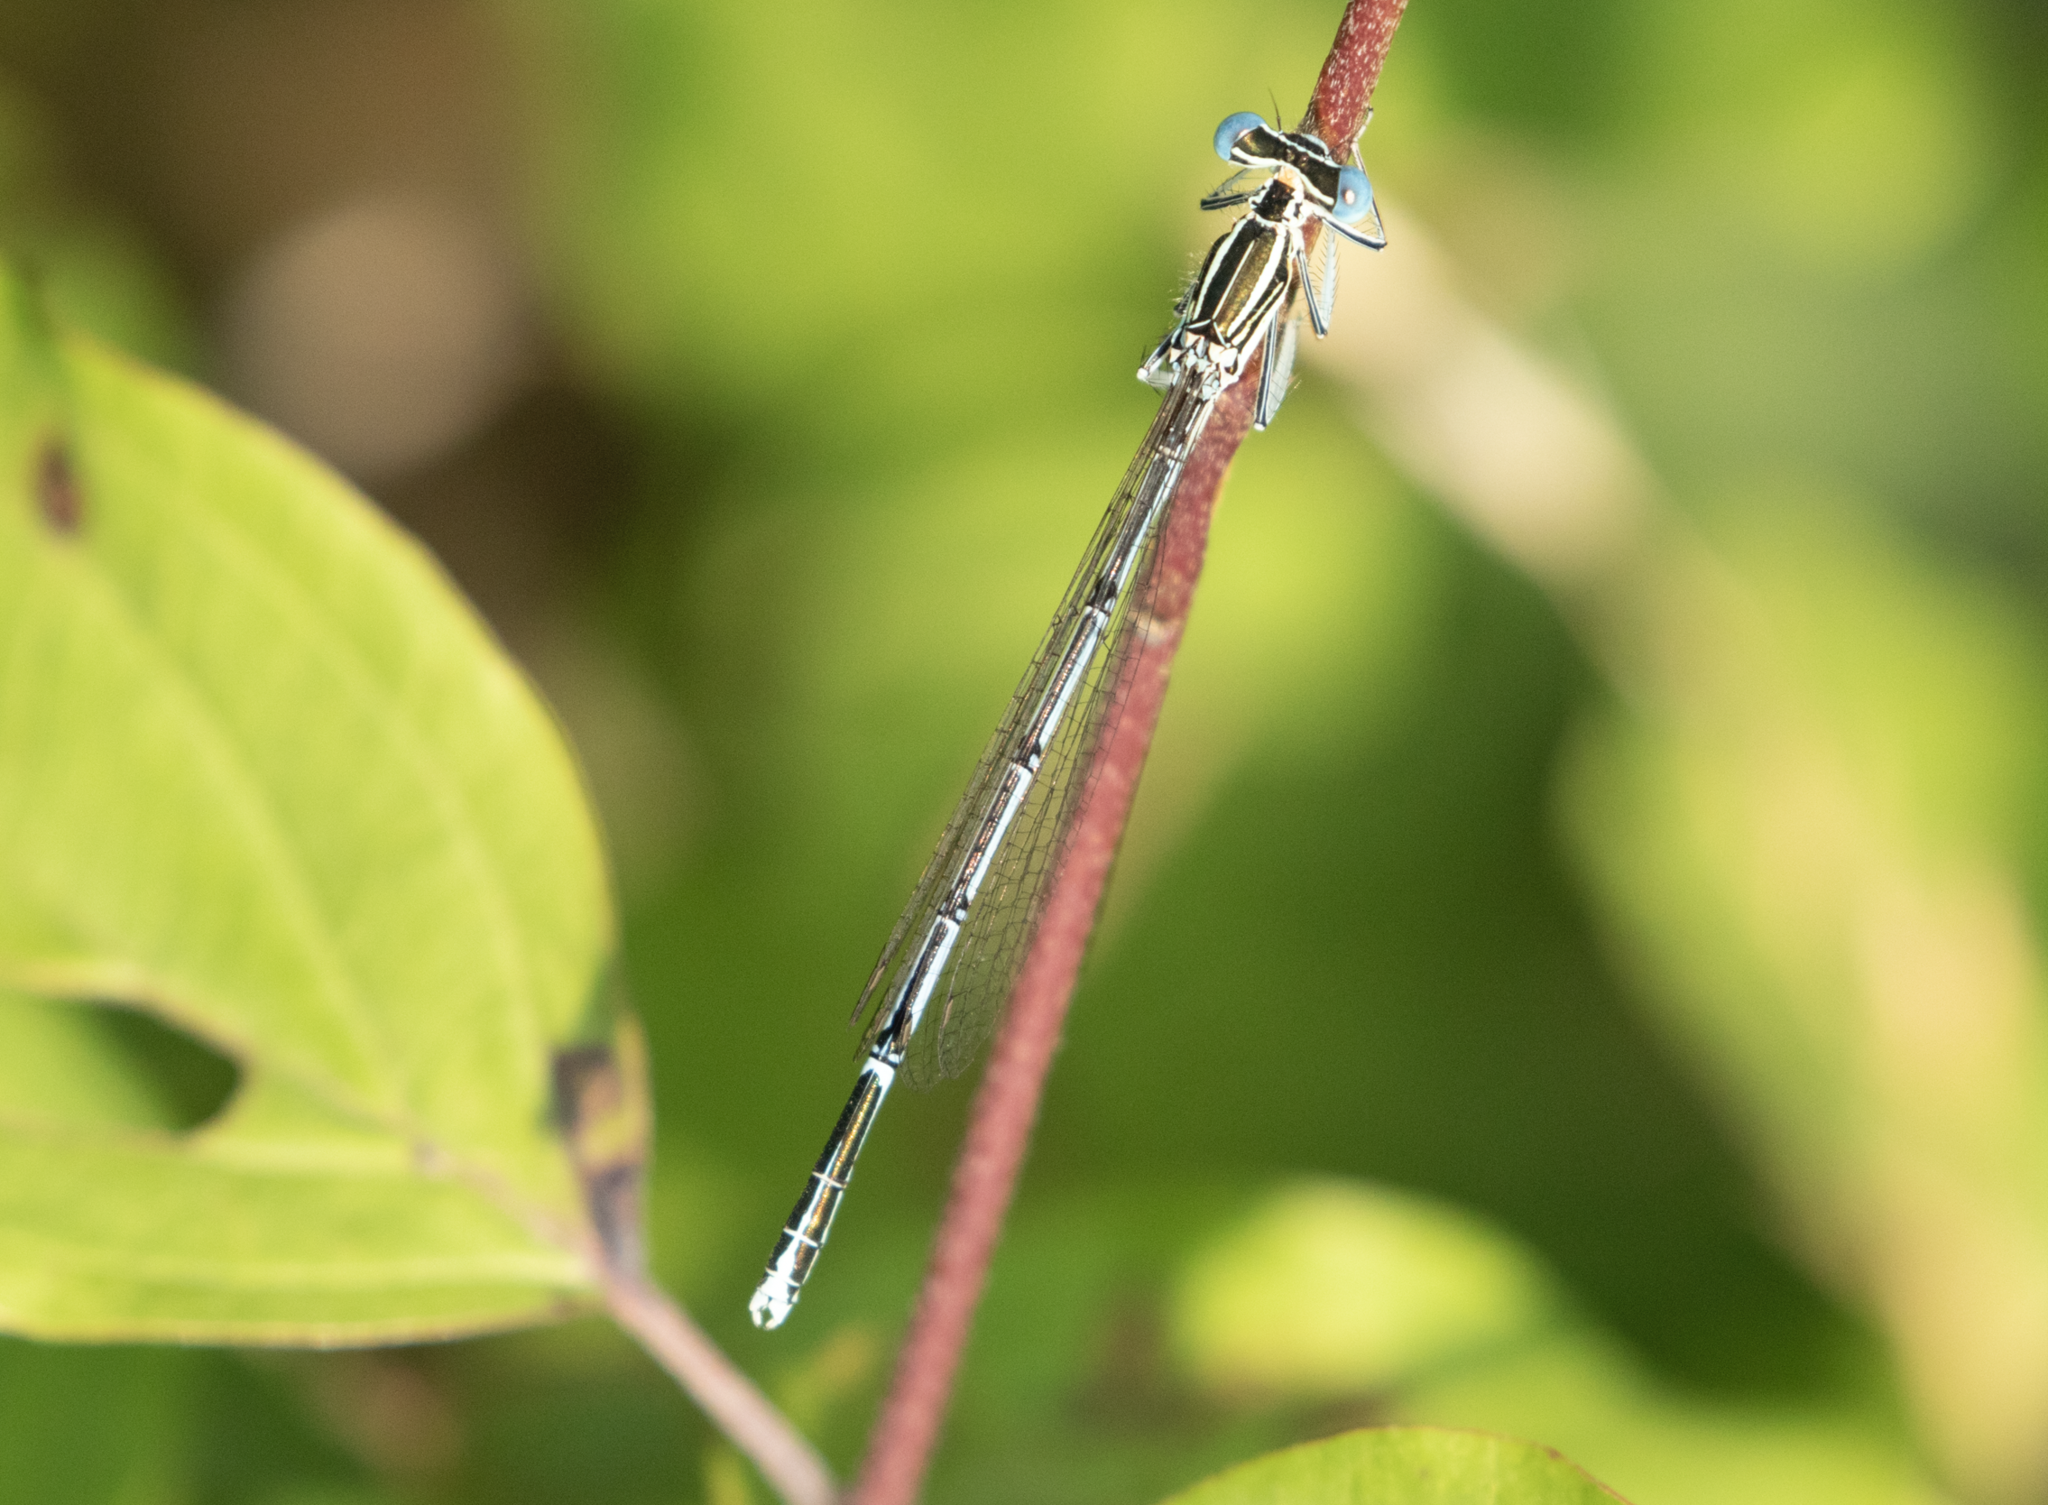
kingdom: Animalia
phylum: Arthropoda
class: Insecta
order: Odonata
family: Platycnemididae
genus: Platycnemis
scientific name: Platycnemis pennipes
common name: White-legged damselfly
